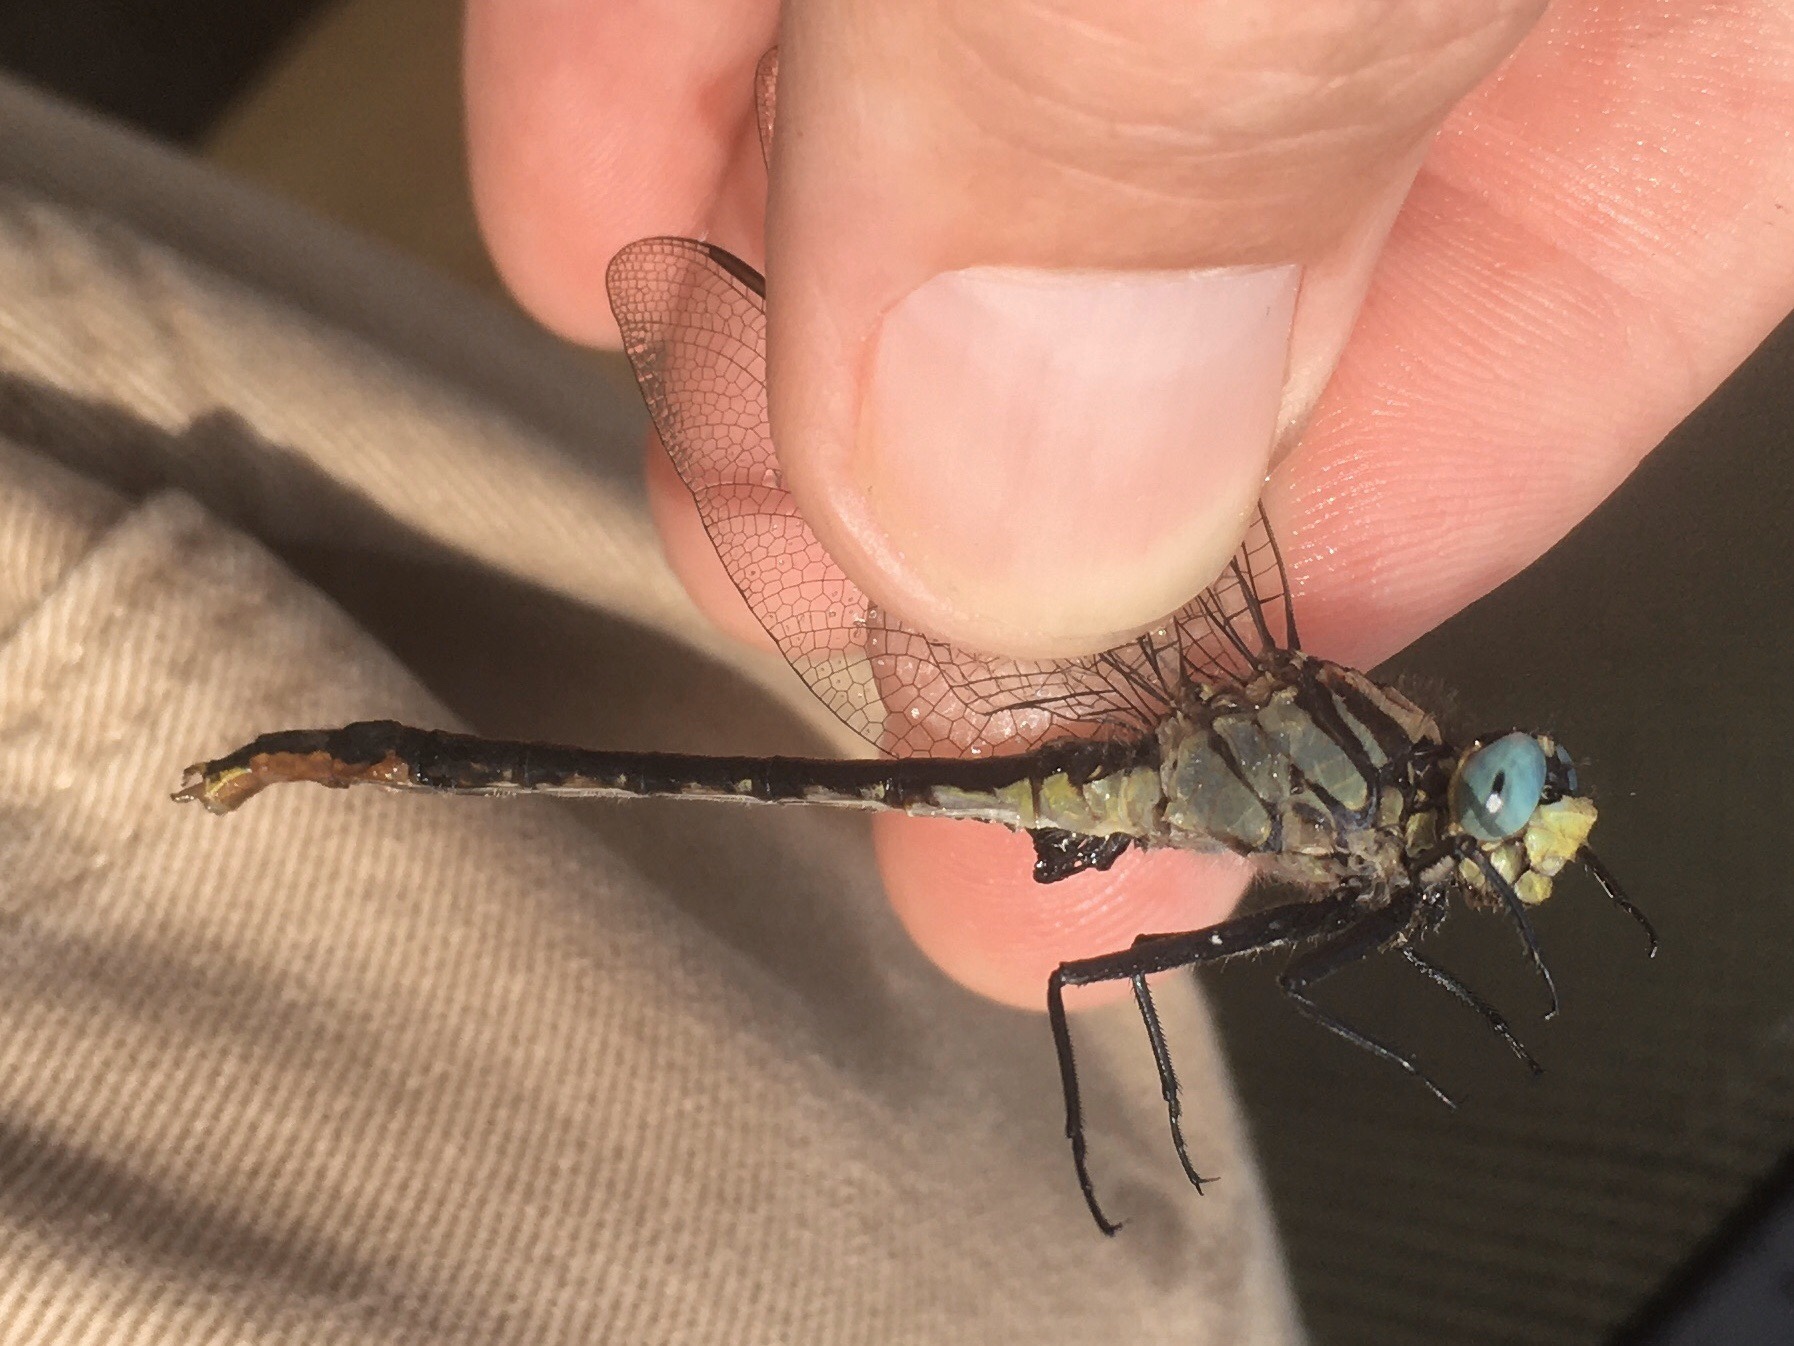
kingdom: Animalia
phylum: Arthropoda
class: Insecta
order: Odonata
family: Gomphidae
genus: Arigomphus
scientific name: Arigomphus furcifer
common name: Lilypad clubtail
